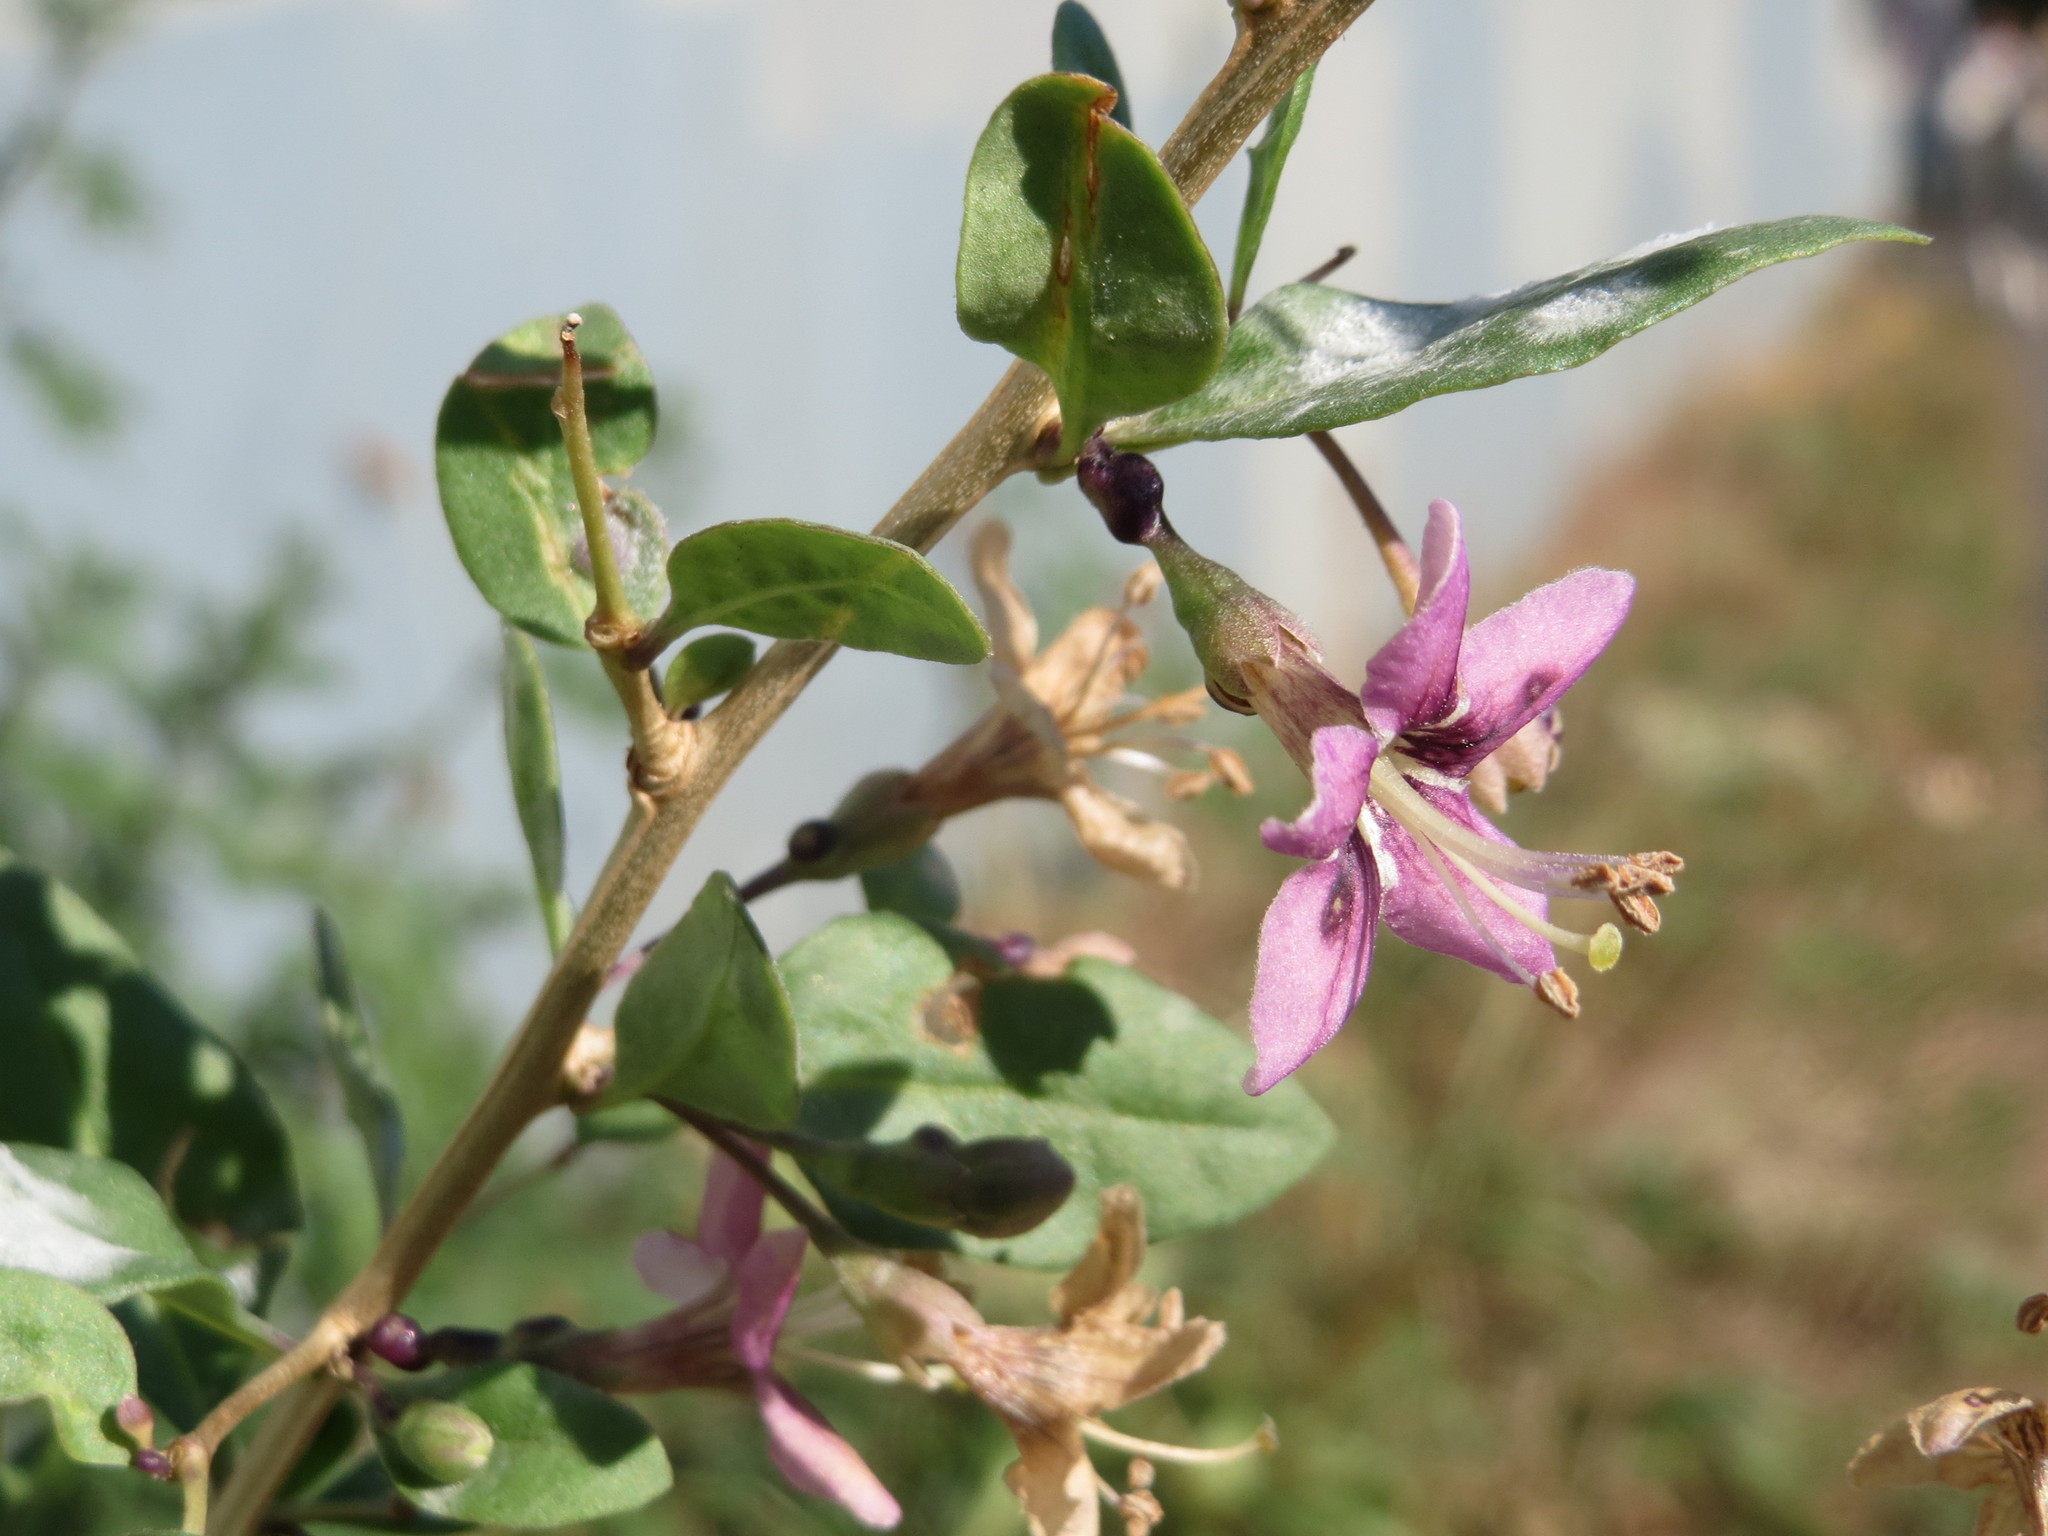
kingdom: Plantae
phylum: Tracheophyta
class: Magnoliopsida
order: Solanales
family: Solanaceae
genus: Lycium
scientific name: Lycium chinense
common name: Chinese teaplant
